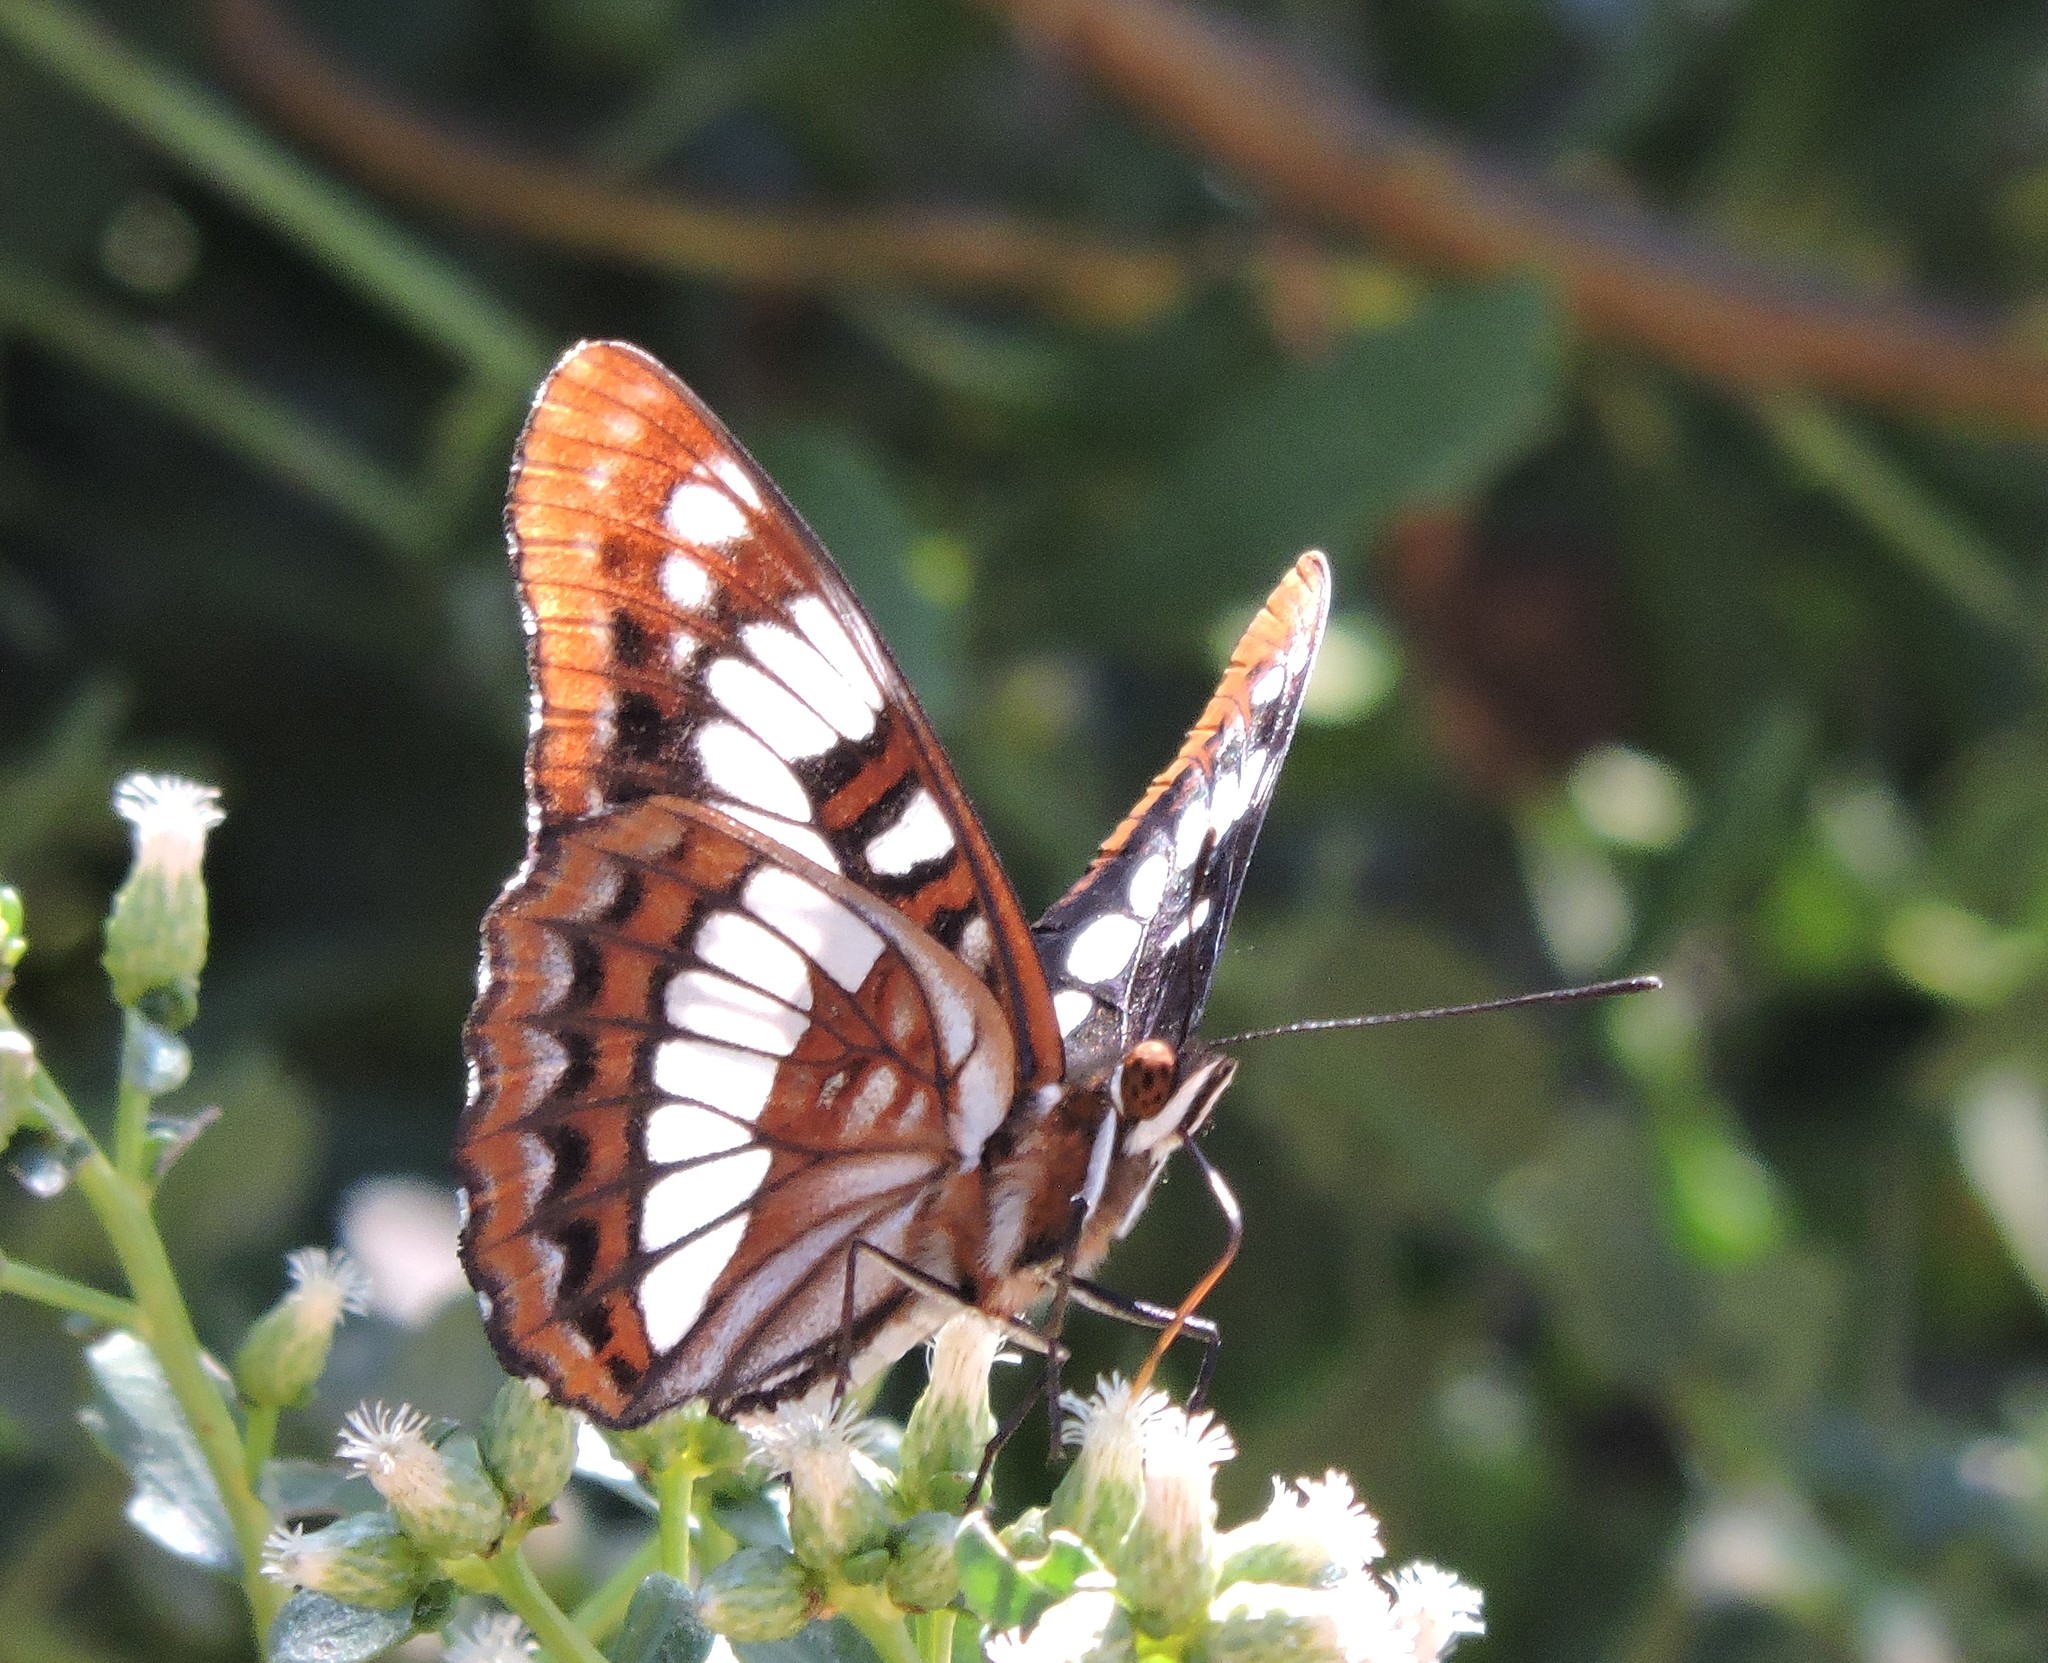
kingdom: Animalia
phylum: Arthropoda
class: Insecta
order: Lepidoptera
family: Nymphalidae
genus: Limenitis
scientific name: Limenitis lorquini
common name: Lorquin's admiral
